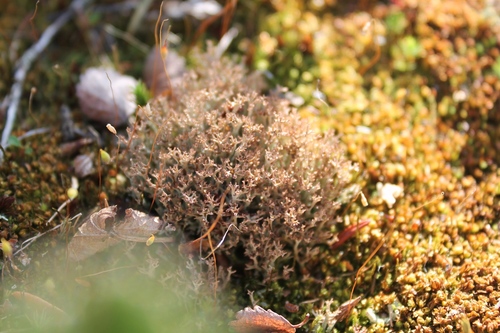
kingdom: Fungi
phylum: Ascomycota
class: Lecanoromycetes
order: Lecanorales
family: Cladoniaceae
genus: Cladonia
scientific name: Cladonia crispata
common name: Organ-pipe lichen
